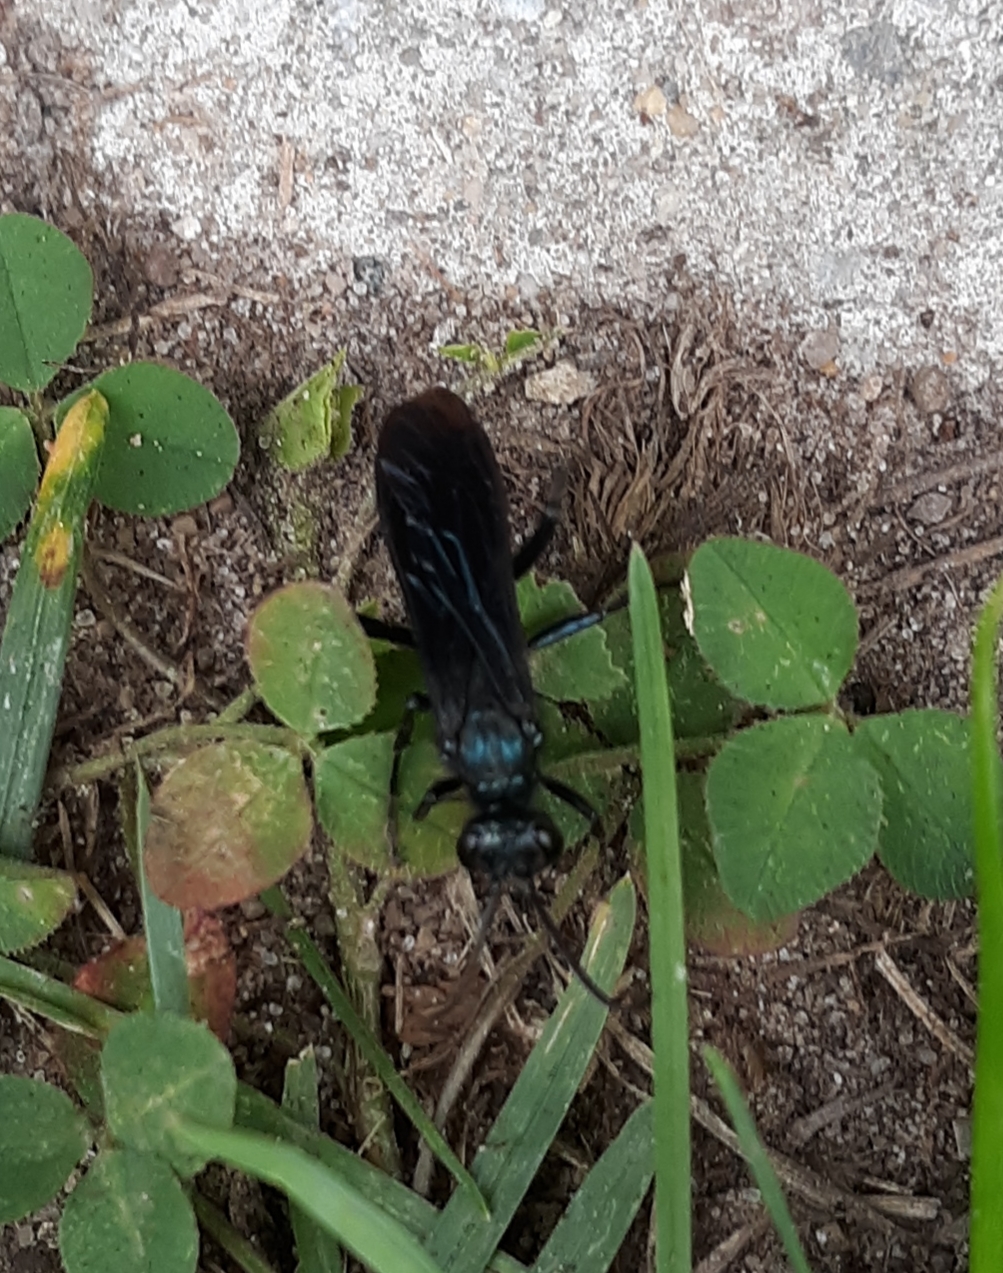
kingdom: Animalia
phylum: Arthropoda
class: Insecta
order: Hymenoptera
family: Sphecidae
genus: Chalybion
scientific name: Chalybion californicum
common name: Mud dauber
